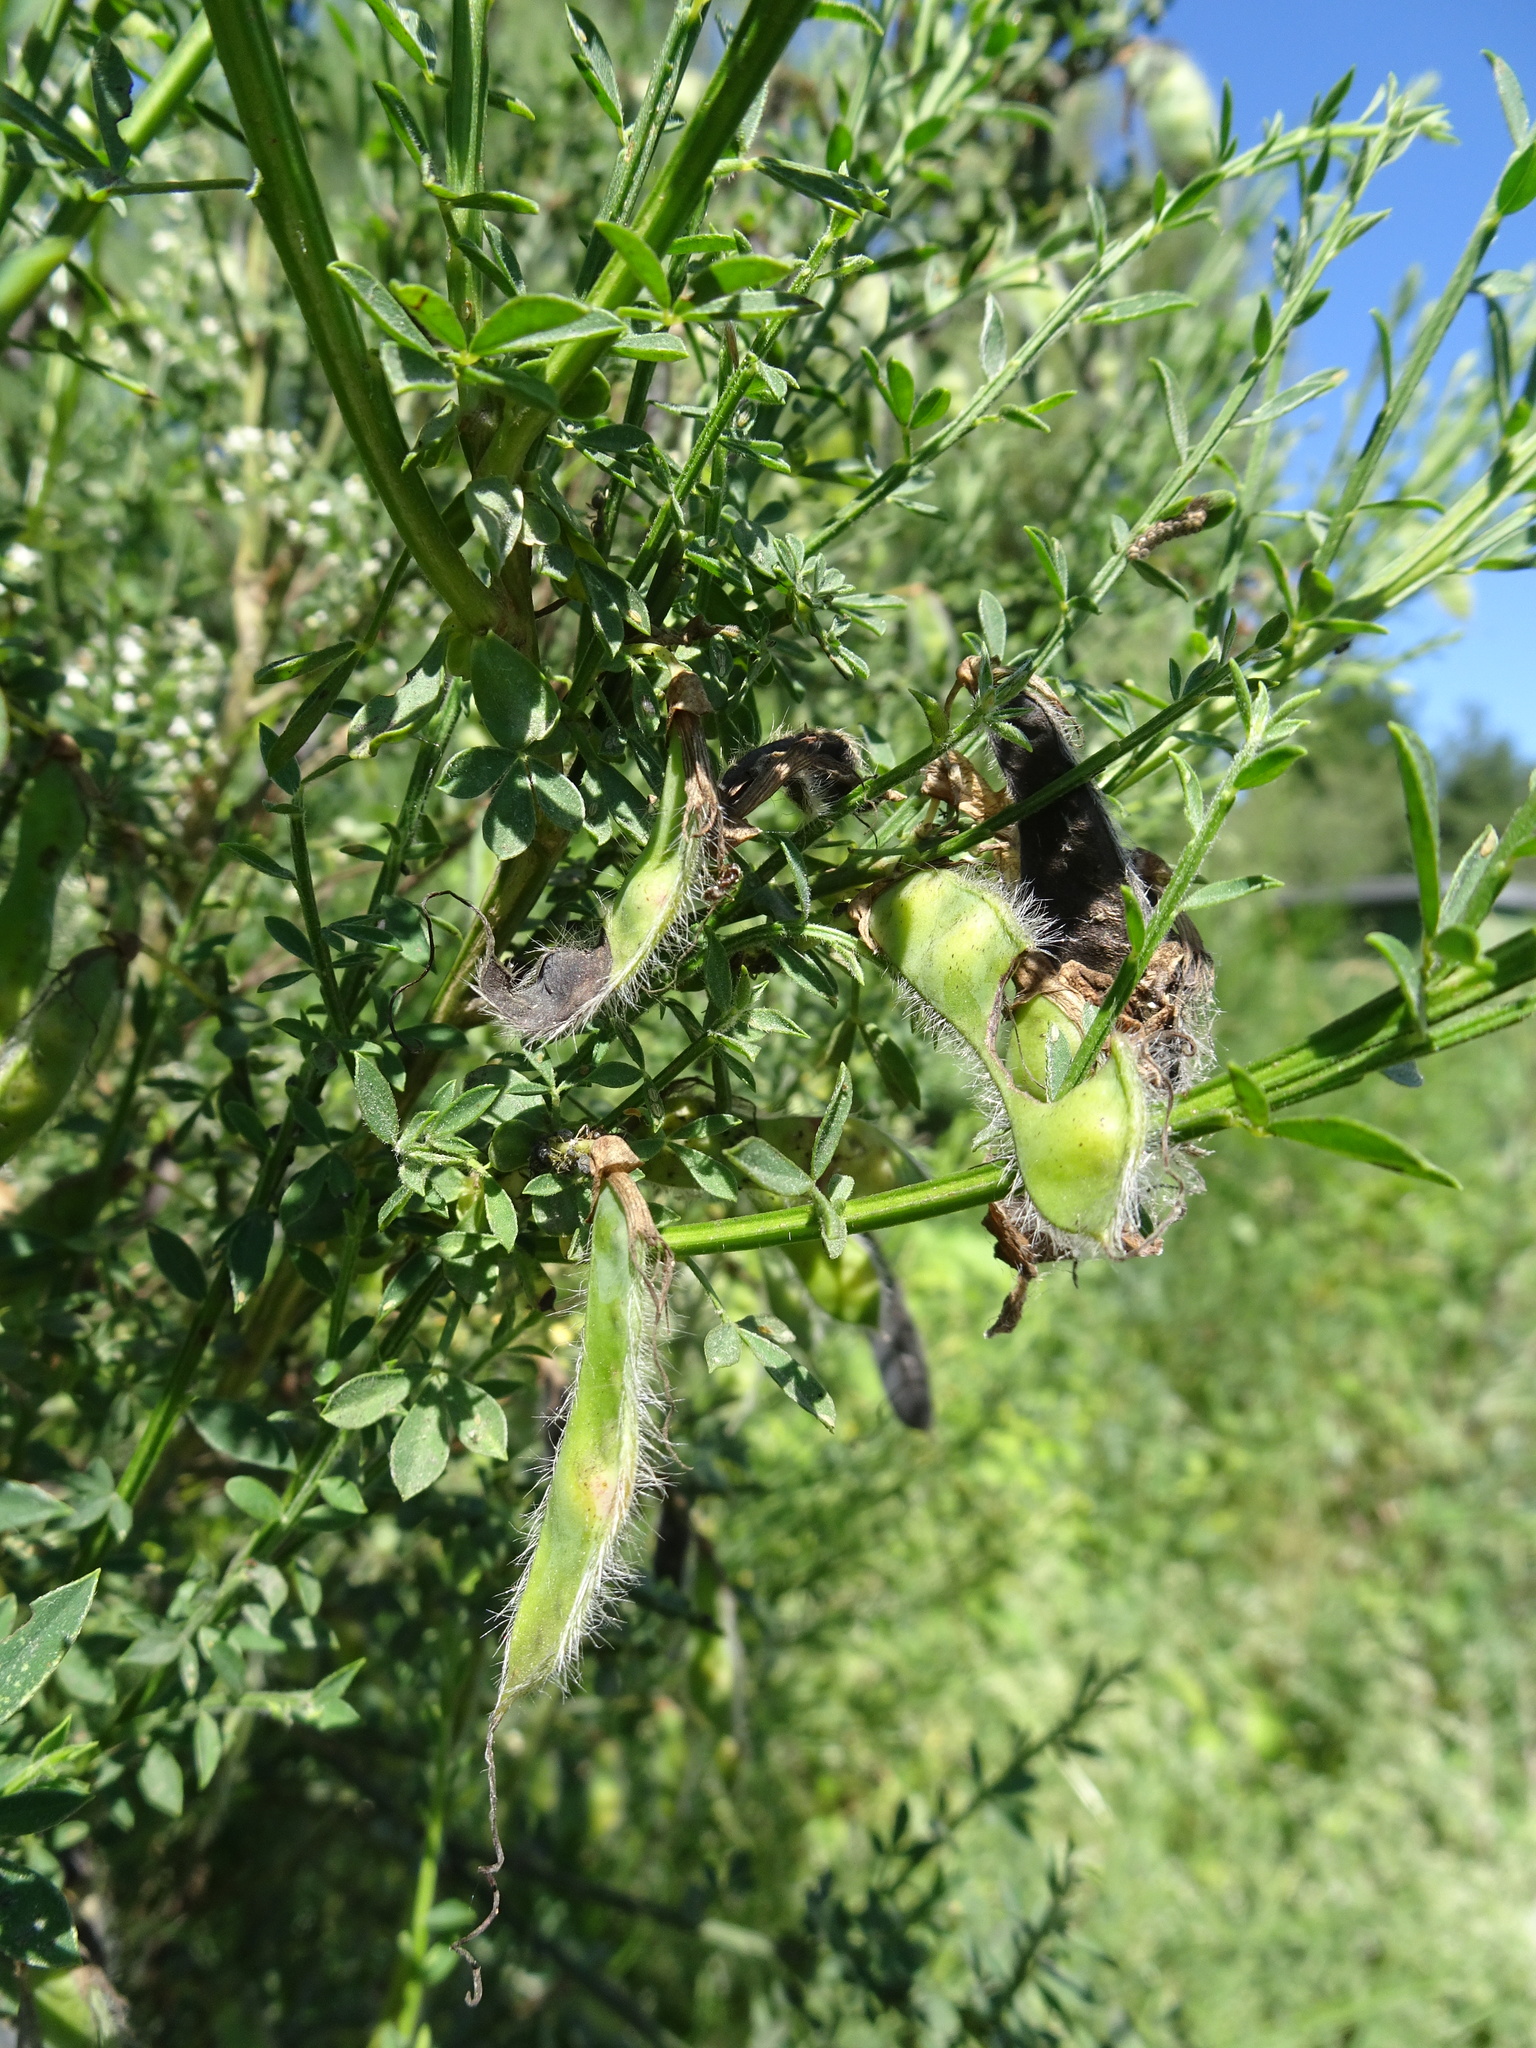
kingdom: Plantae
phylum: Tracheophyta
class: Magnoliopsida
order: Fabales
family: Fabaceae
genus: Cytisus
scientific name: Cytisus scoparius
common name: Scotch broom
